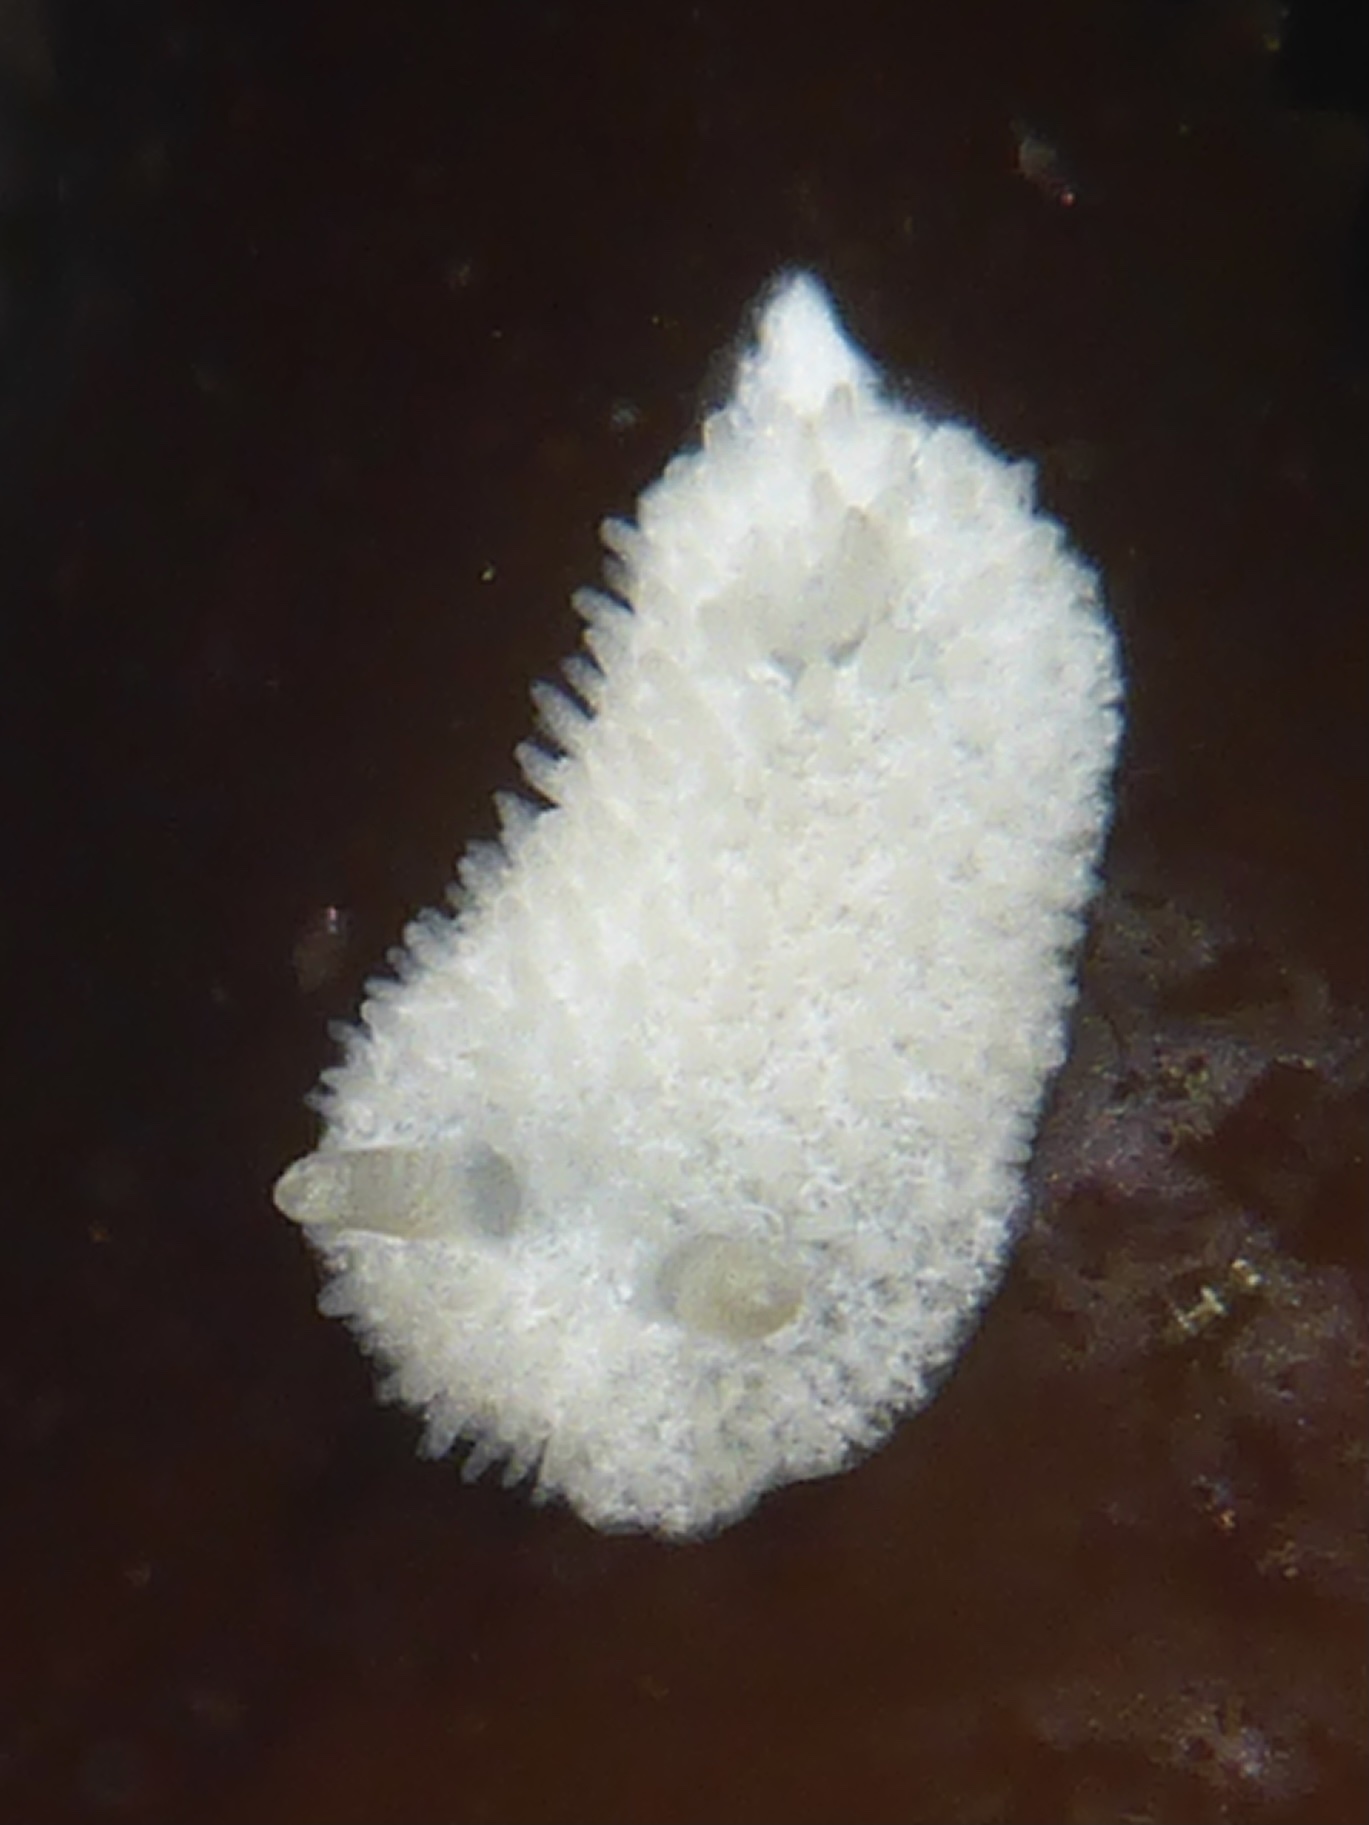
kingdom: Animalia
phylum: Mollusca
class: Gastropoda
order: Nudibranchia
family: Calycidorididae
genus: Diaphorodoris
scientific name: Diaphorodoris lirulatocauda
